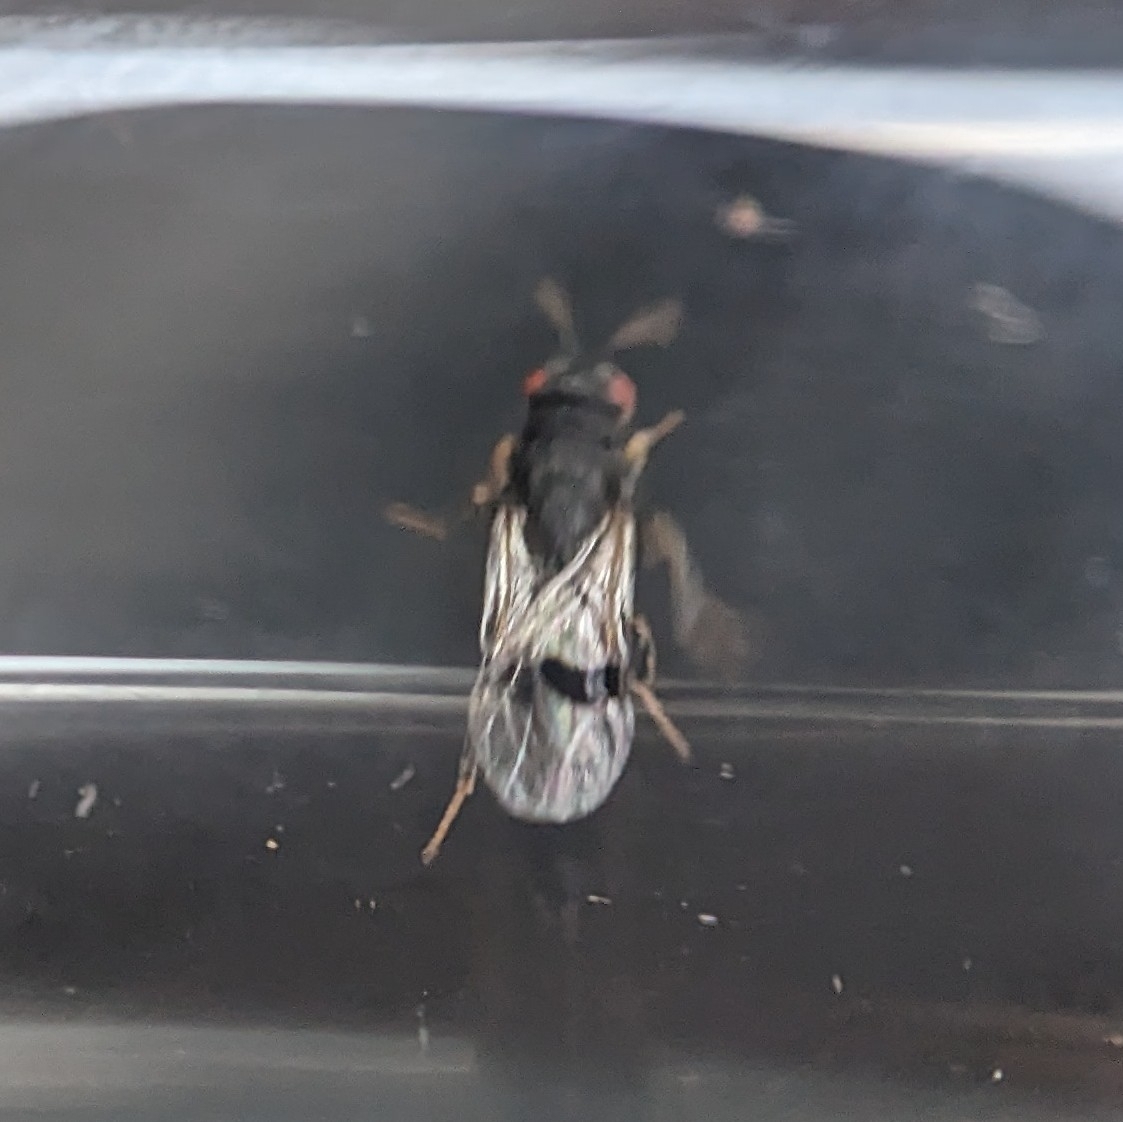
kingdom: Animalia
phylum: Arthropoda
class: Insecta
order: Hymenoptera
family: Cynipidae
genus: Andricus
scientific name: Andricus grossulariae
